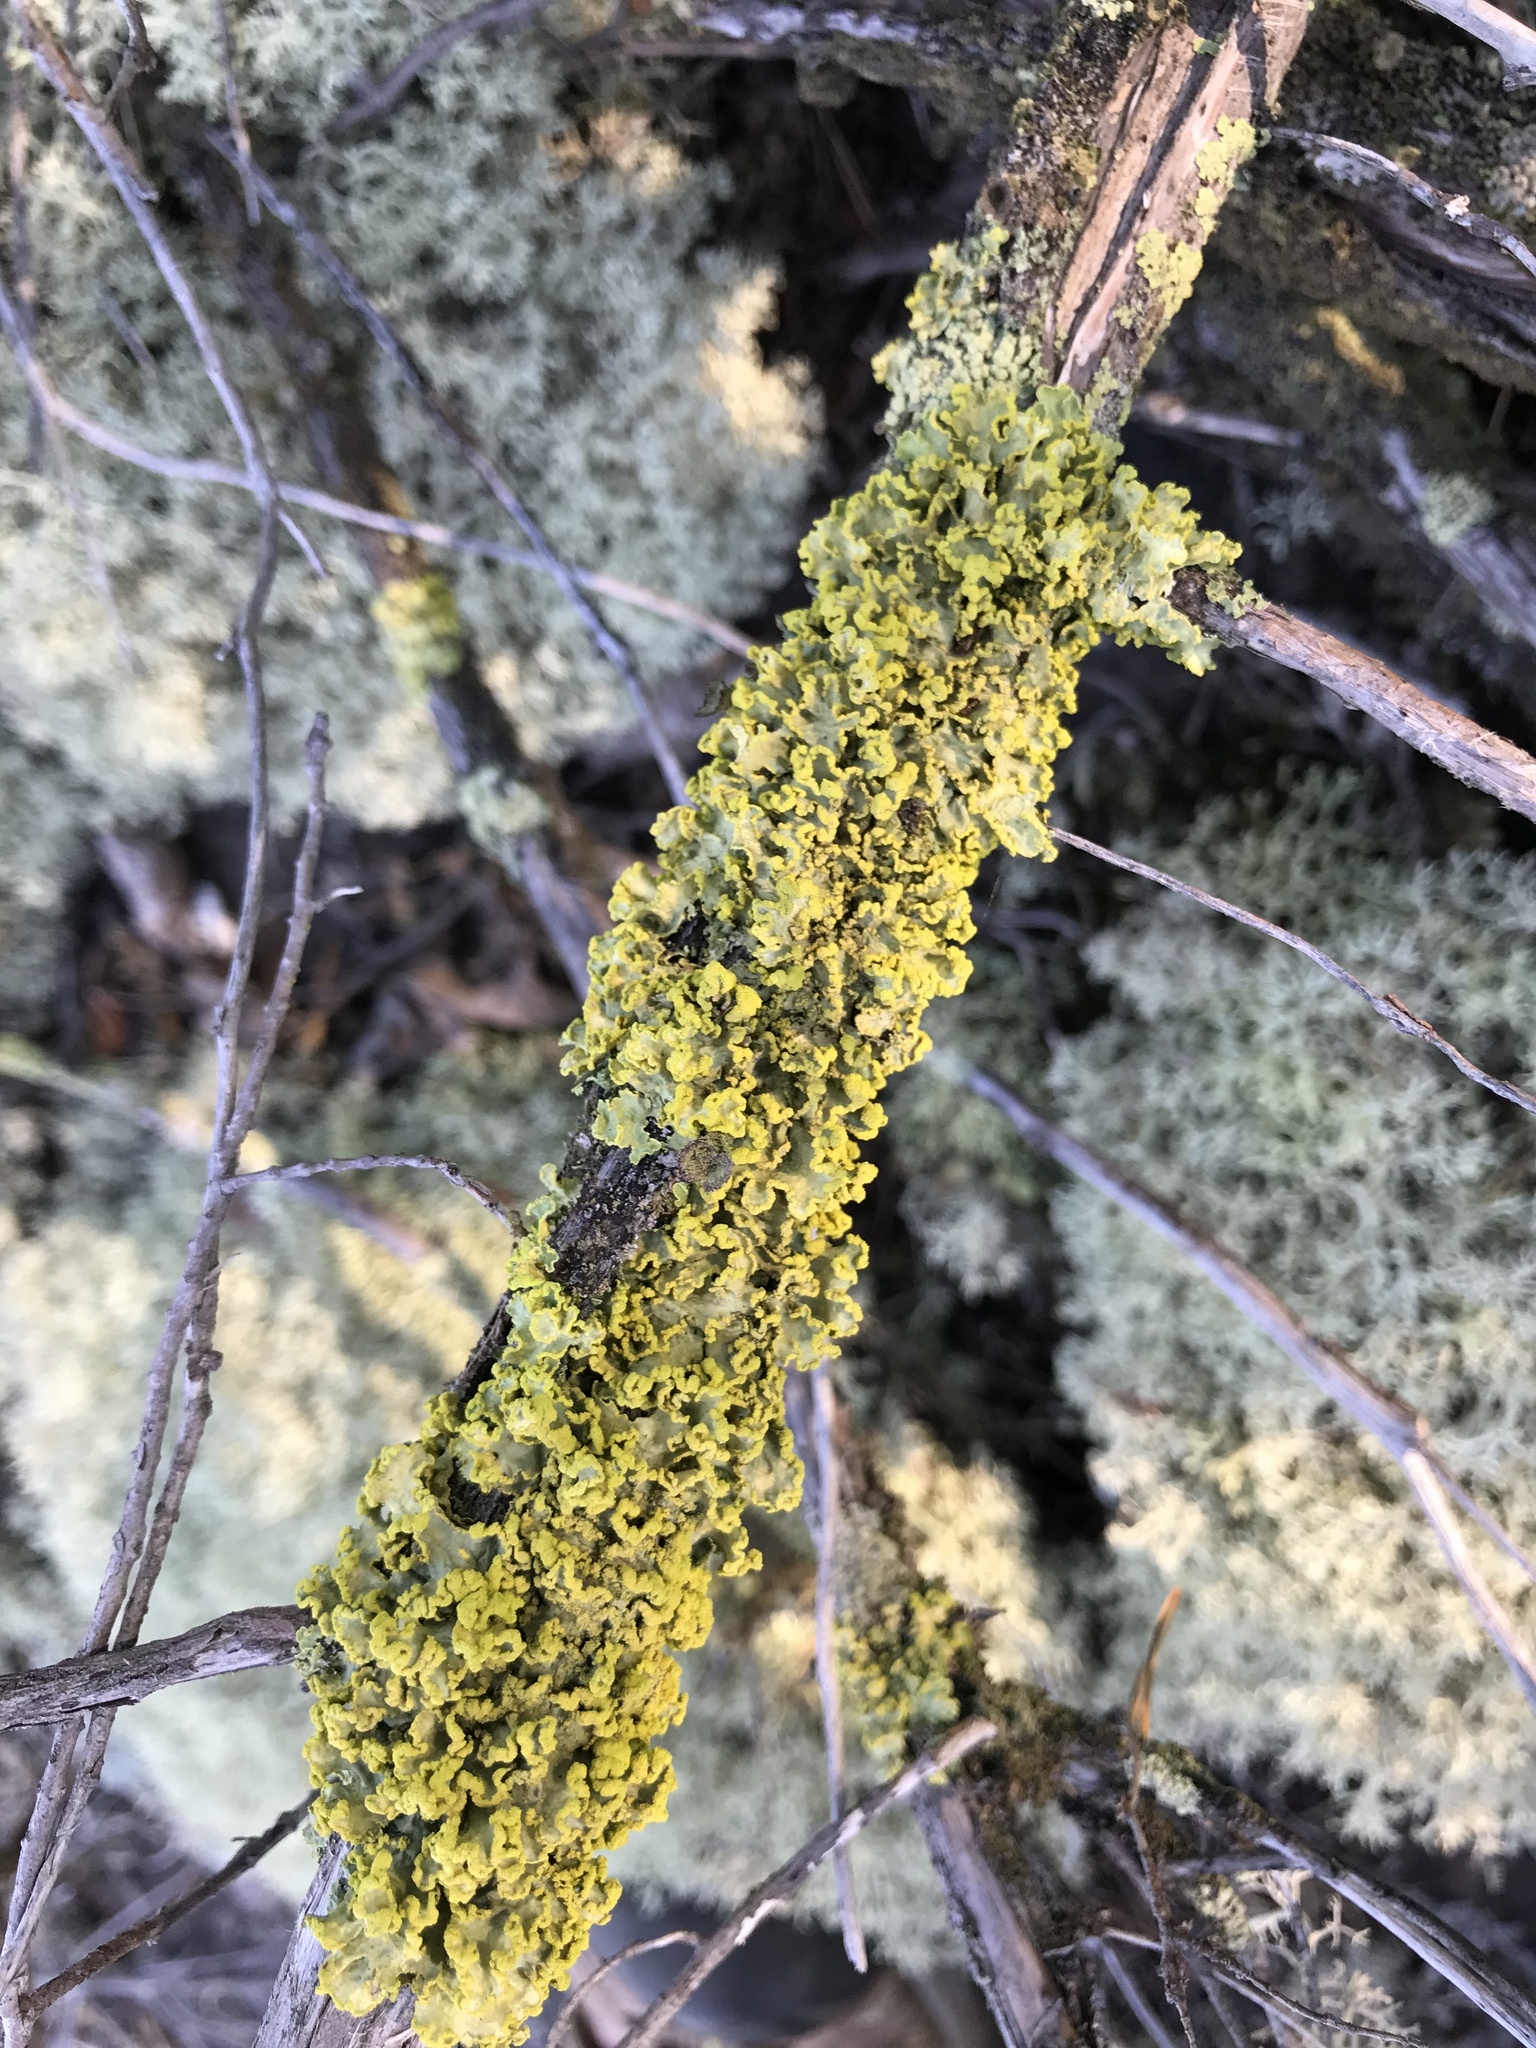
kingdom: Fungi
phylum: Ascomycota
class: Lecanoromycetes
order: Lecanorales
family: Parmeliaceae
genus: Vulpicida
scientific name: Vulpicida pinastri
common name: Powdered sunshine lichen
